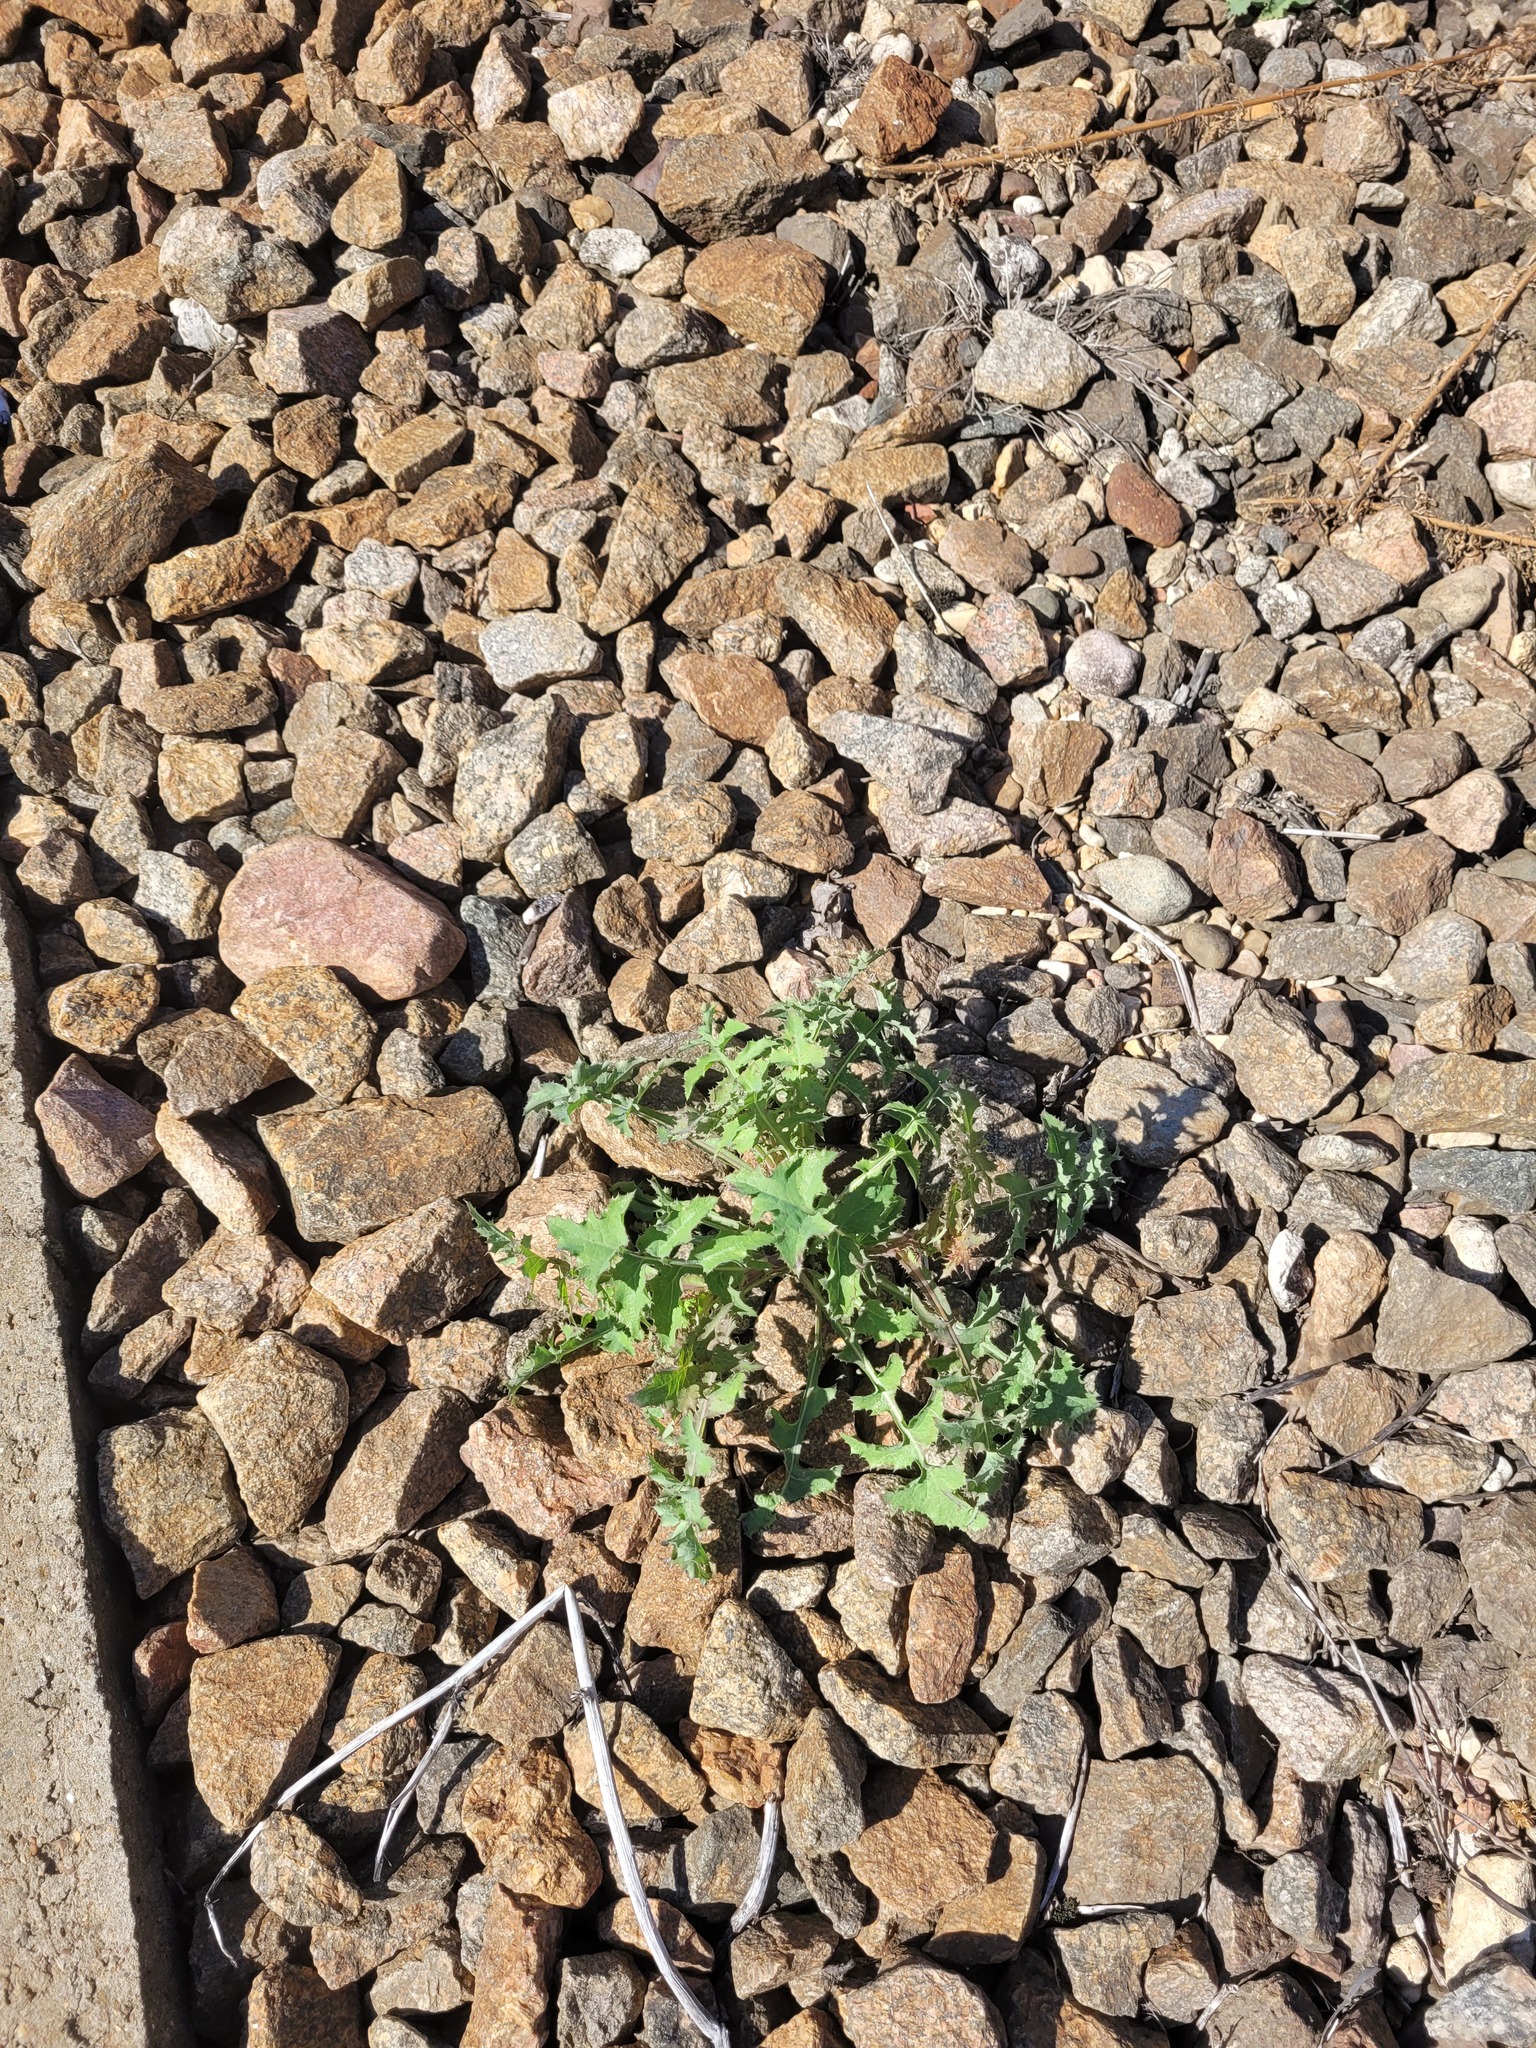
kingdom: Plantae
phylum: Tracheophyta
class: Magnoliopsida
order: Asterales
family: Asteraceae
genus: Sonchus
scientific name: Sonchus oleraceus
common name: Common sowthistle
